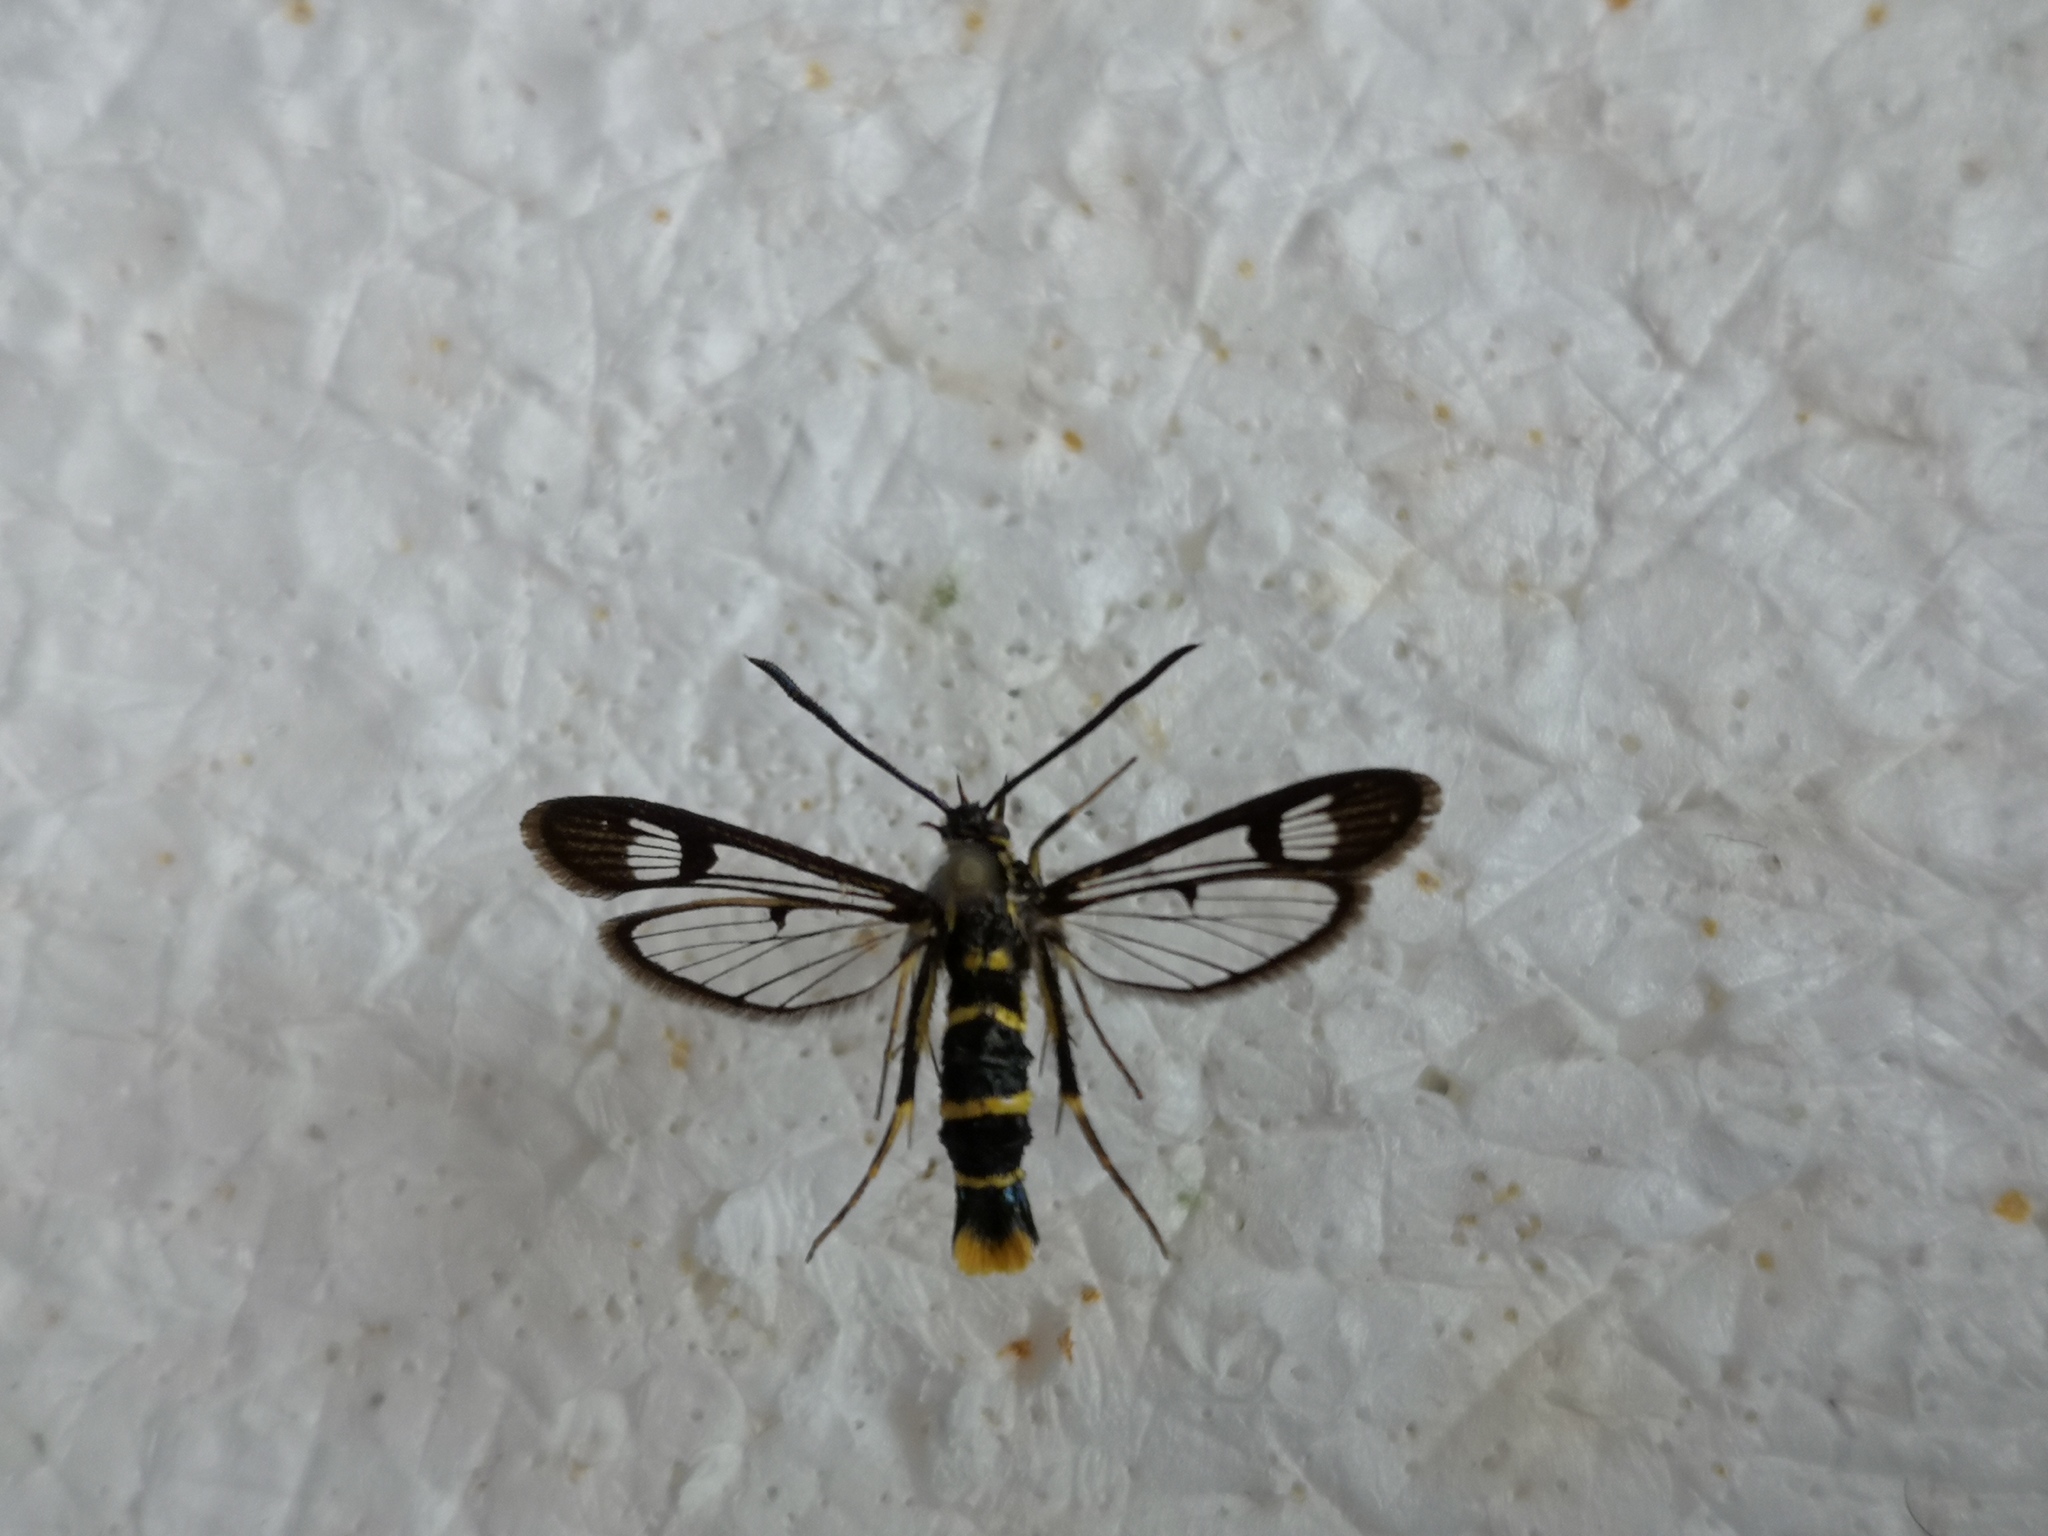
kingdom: Animalia
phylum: Arthropoda
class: Insecta
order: Lepidoptera
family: Sesiidae
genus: Synanthedon
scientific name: Synanthedon cephiformis
